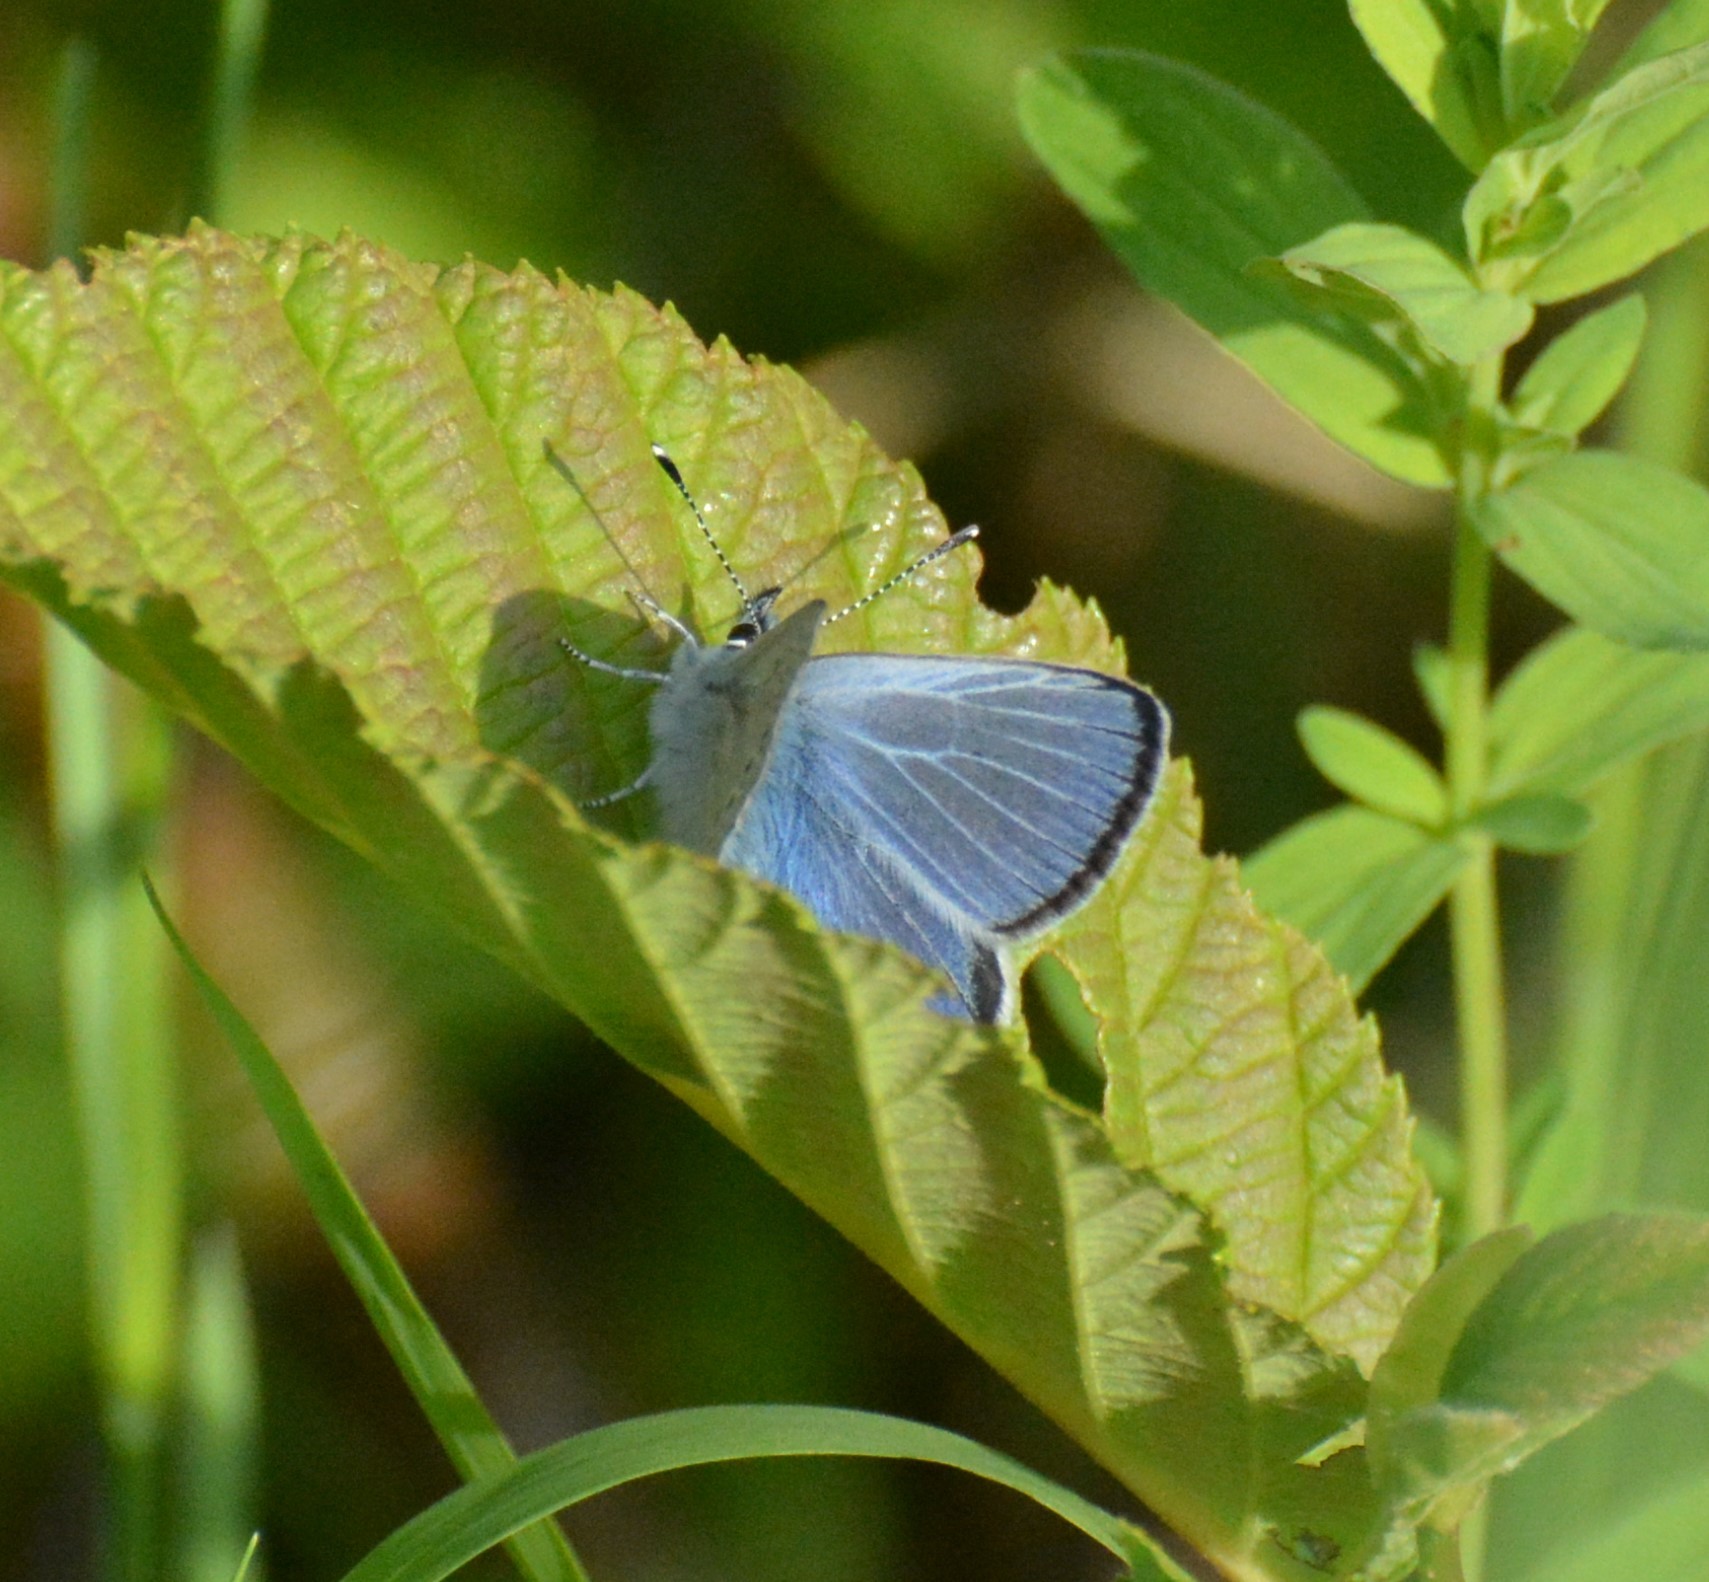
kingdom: Animalia
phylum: Arthropoda
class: Insecta
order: Lepidoptera
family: Lycaenidae
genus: Glaucopsyche
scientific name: Glaucopsyche lygdamus
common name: Silvery blue
